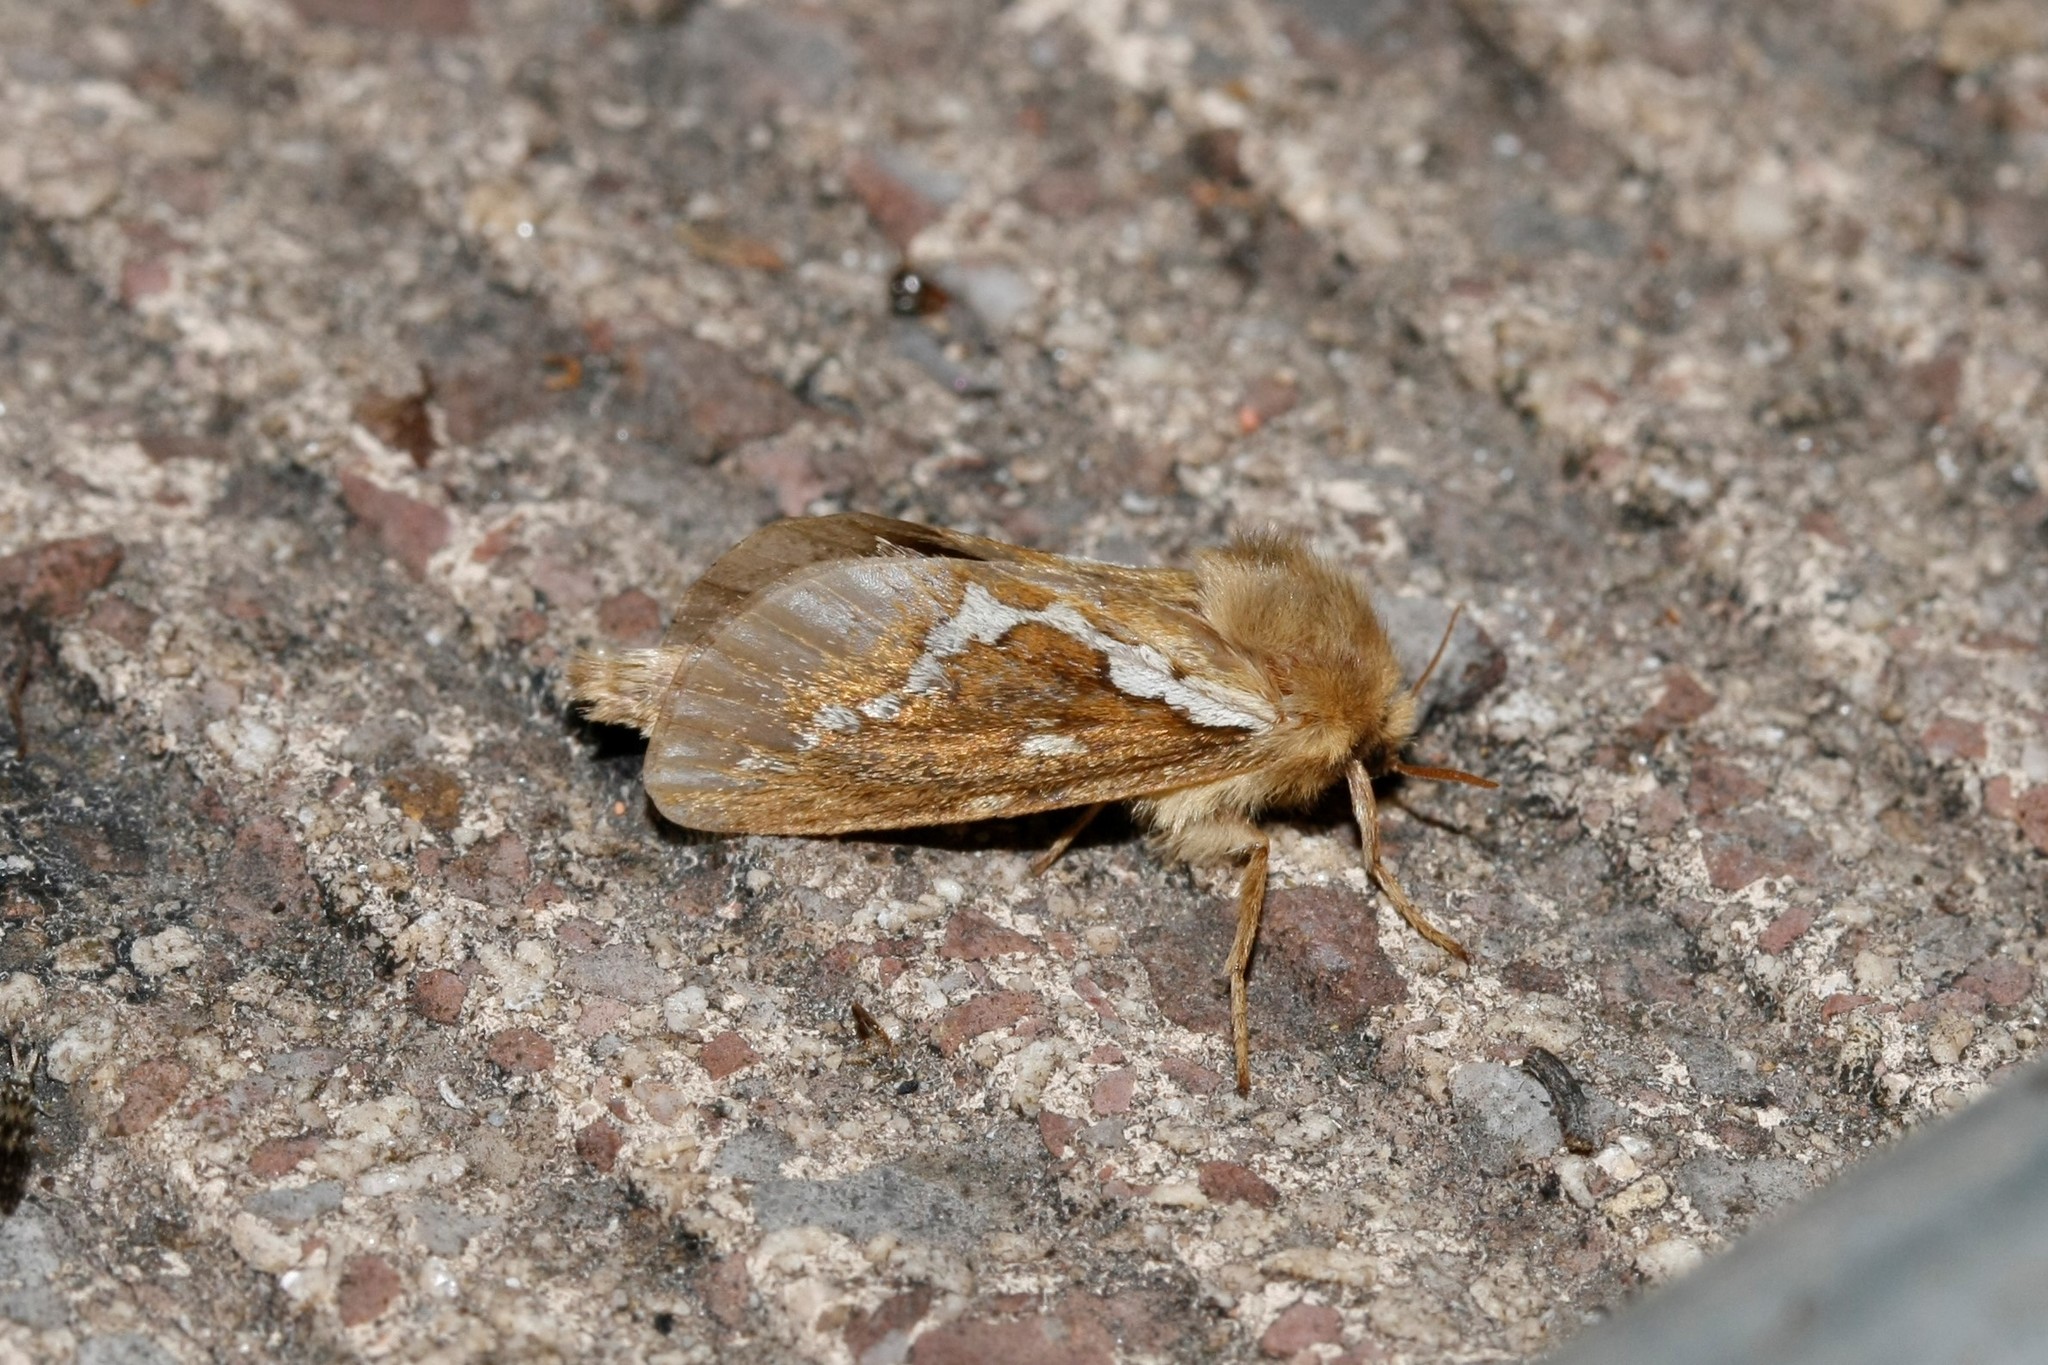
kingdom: Animalia
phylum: Arthropoda
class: Insecta
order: Lepidoptera
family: Hepialidae
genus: Korscheltellus
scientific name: Korscheltellus lupulina
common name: Common swift
